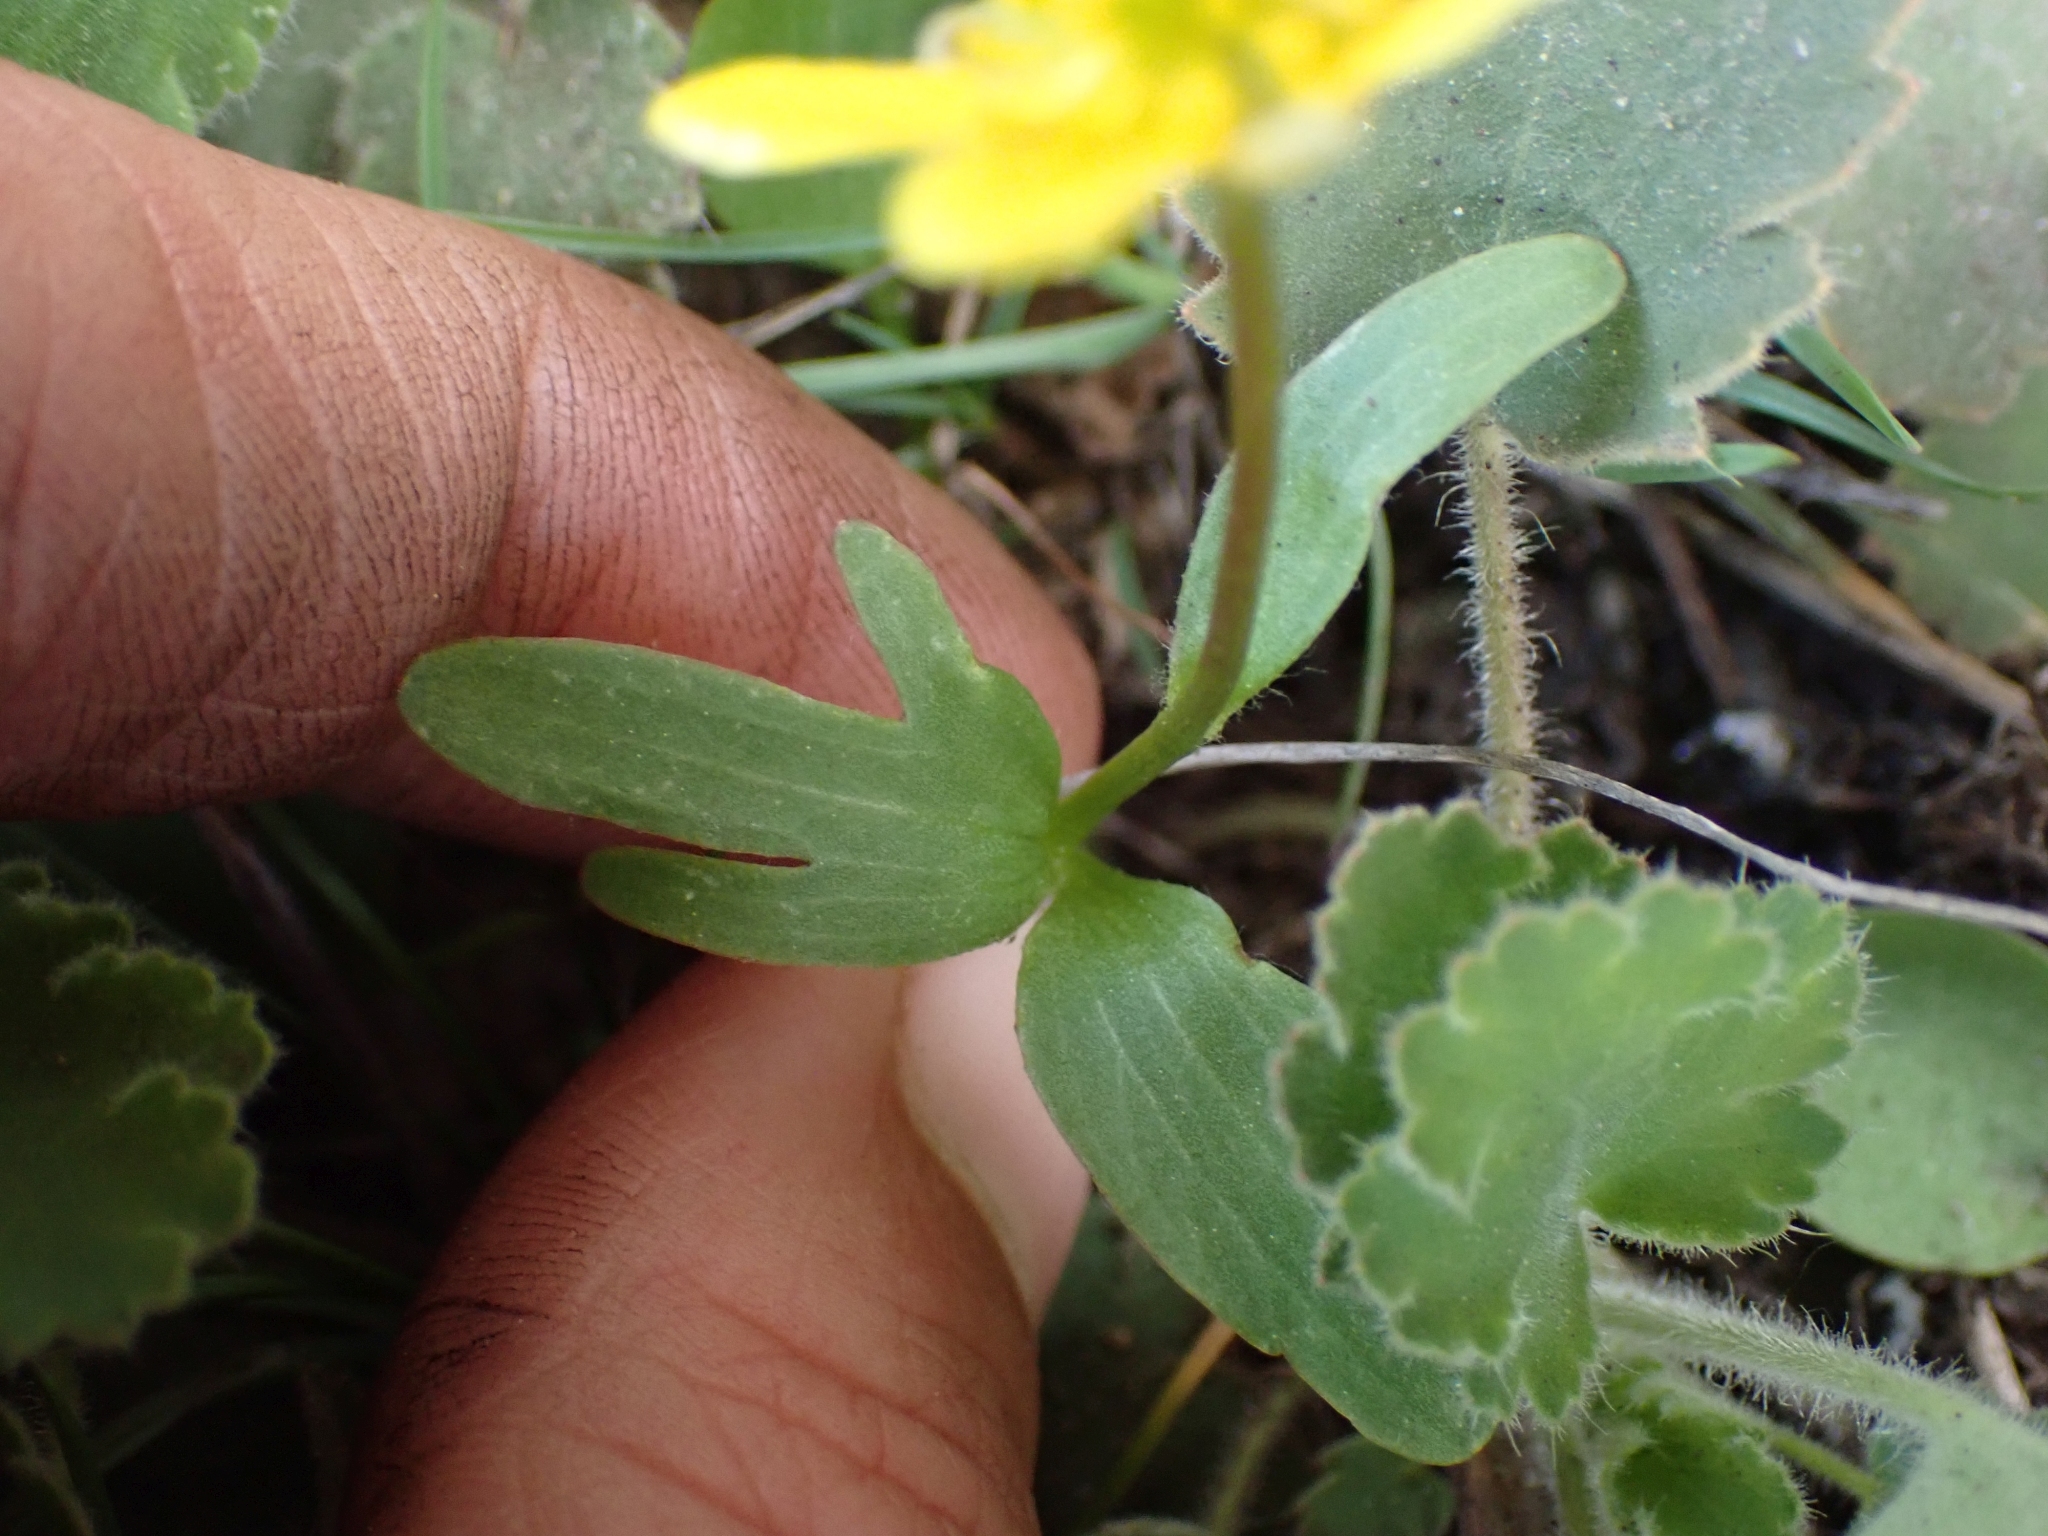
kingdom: Plantae
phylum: Tracheophyta
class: Magnoliopsida
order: Ranunculales
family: Ranunculaceae
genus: Ranunculus
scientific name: Ranunculus glaberrimus
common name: Sagebrush buttercup
